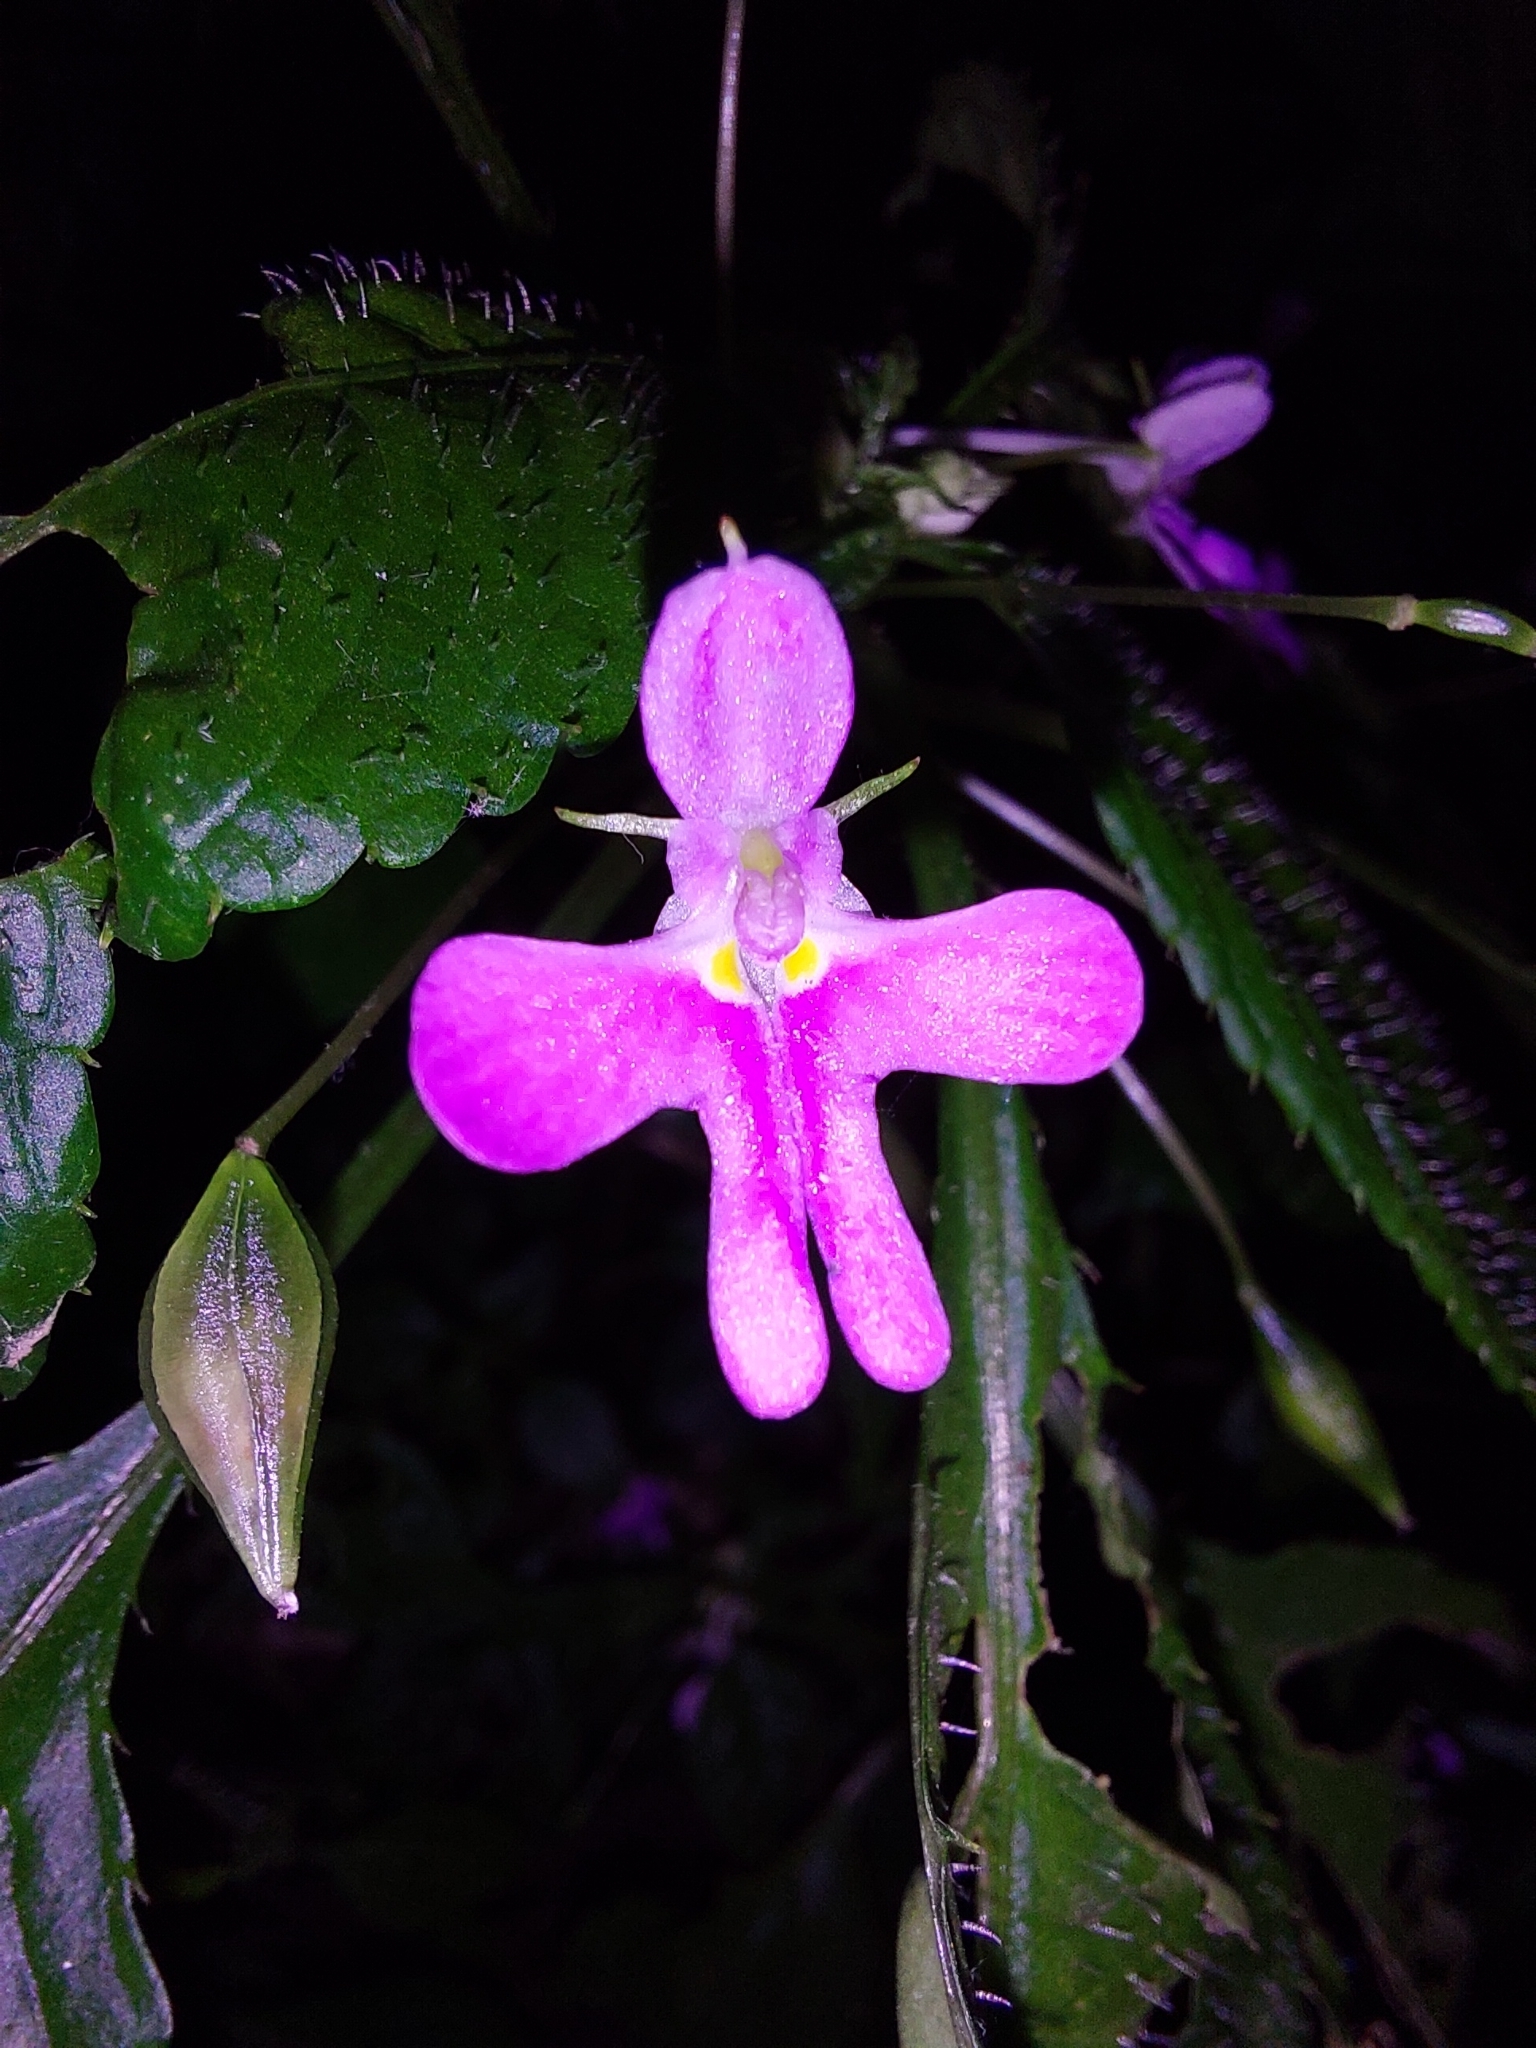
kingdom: Plantae
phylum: Tracheophyta
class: Magnoliopsida
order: Ericales
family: Balsaminaceae
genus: Impatiens
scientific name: Impatiens hochstetteri
